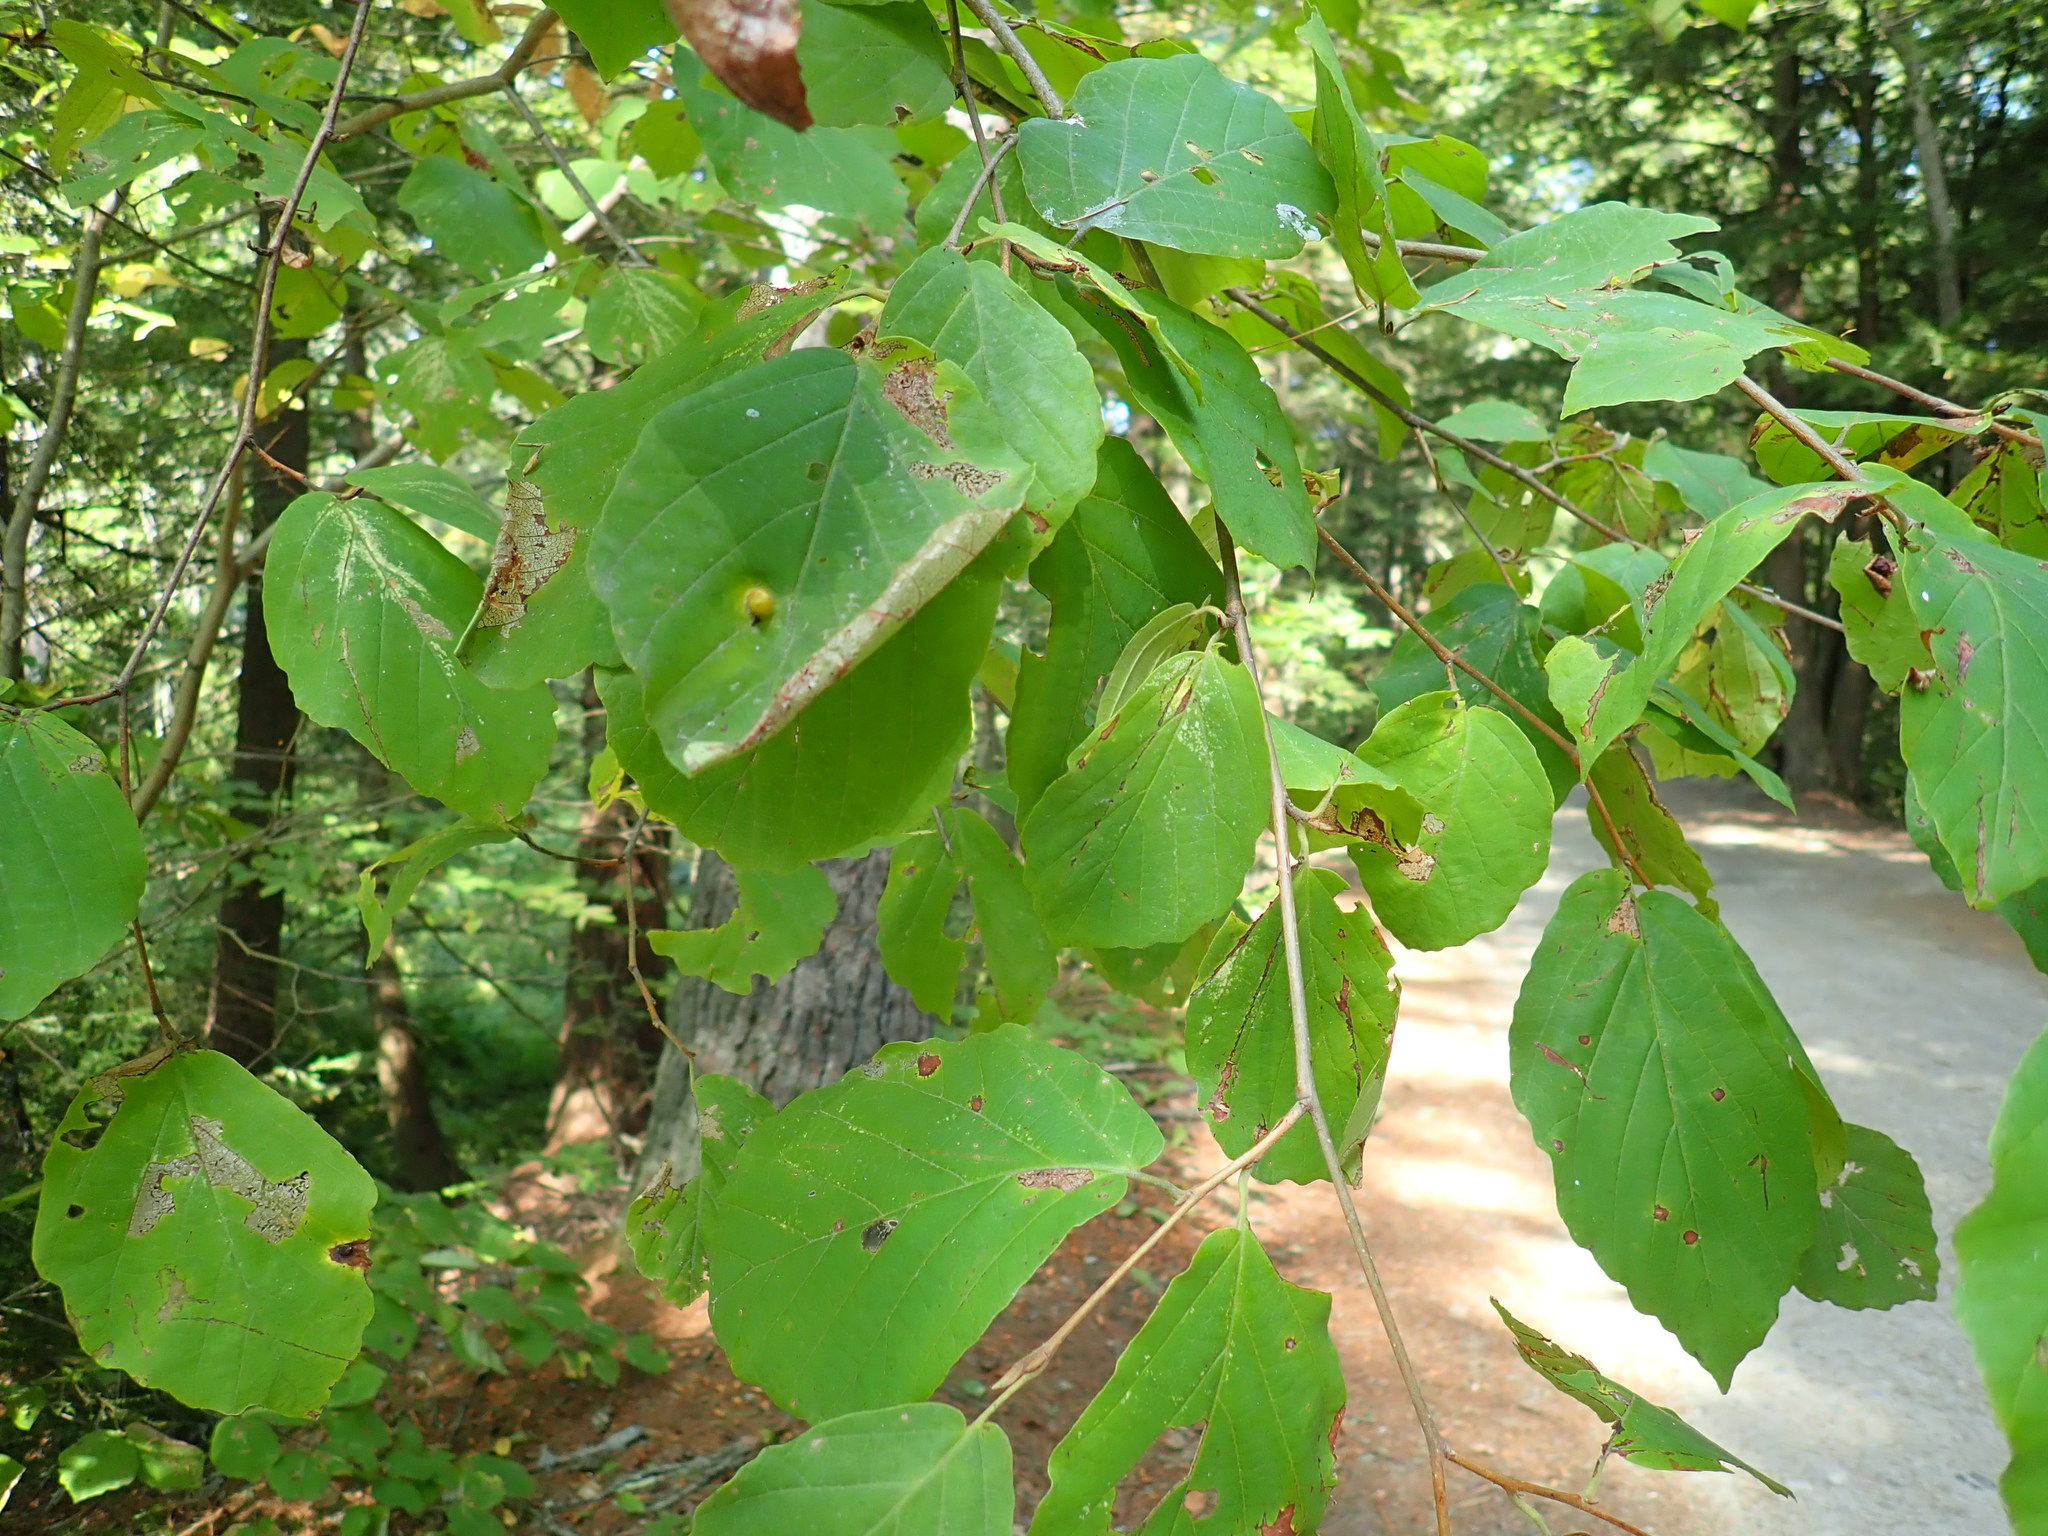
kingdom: Animalia
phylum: Arthropoda
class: Insecta
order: Hemiptera
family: Aphididae
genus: Hormaphis
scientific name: Hormaphis hamamelidis
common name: Witch-hazel cone gall aphid
